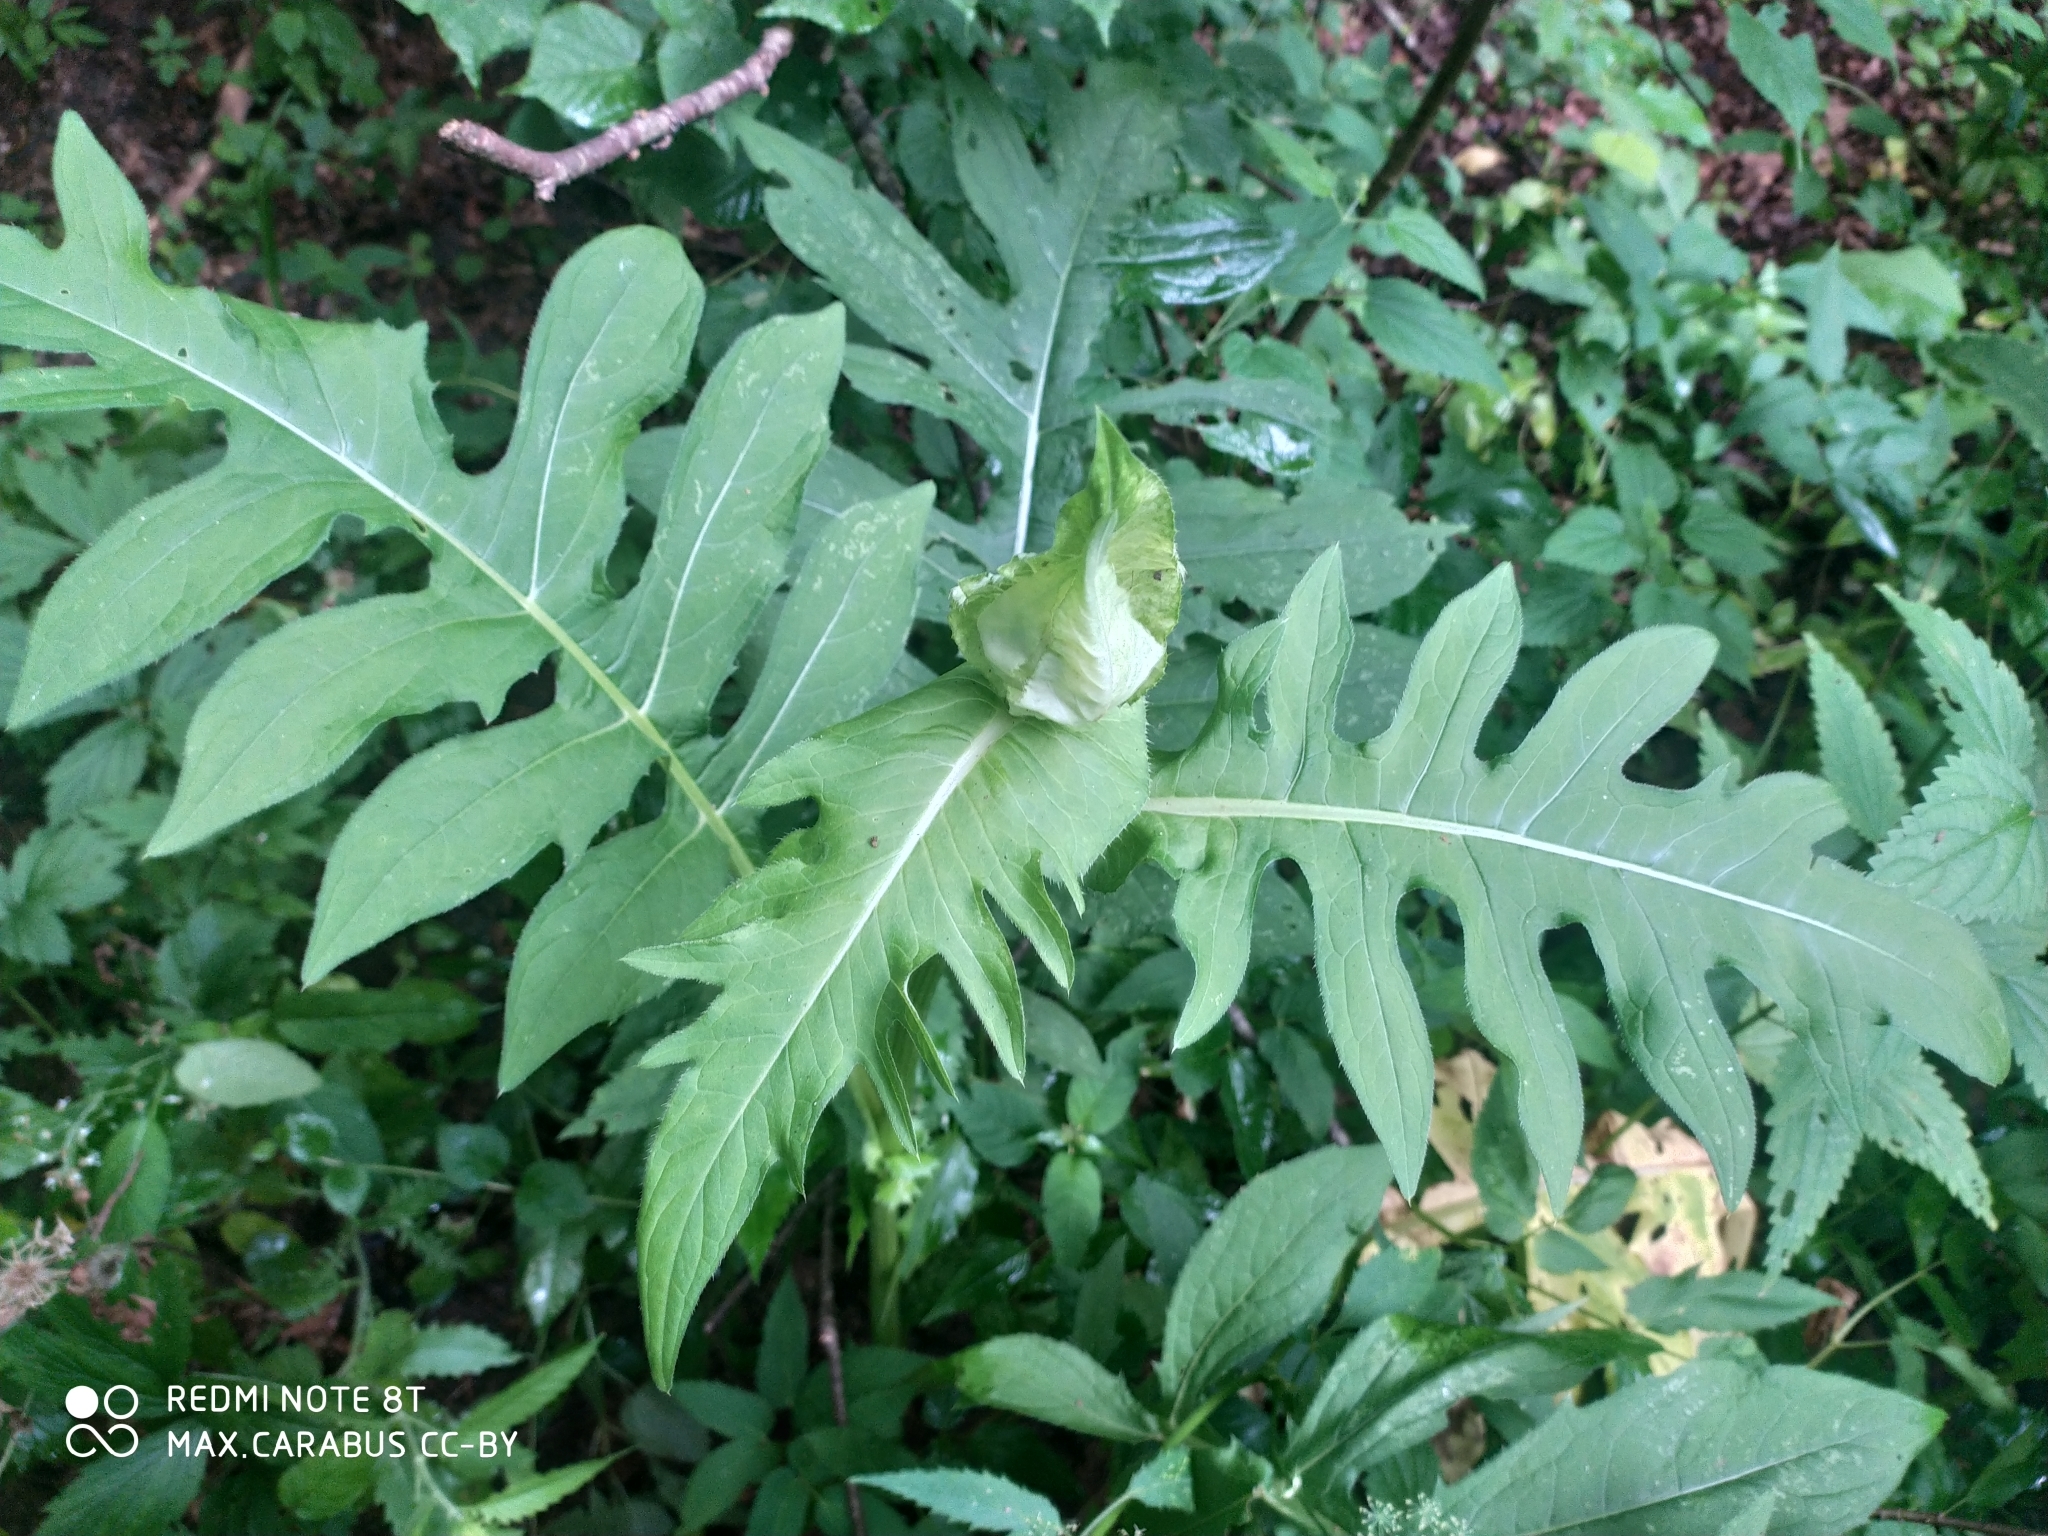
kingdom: Plantae
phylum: Tracheophyta
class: Magnoliopsida
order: Asterales
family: Asteraceae
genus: Cirsium
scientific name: Cirsium oleraceum
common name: Cabbage thistle
